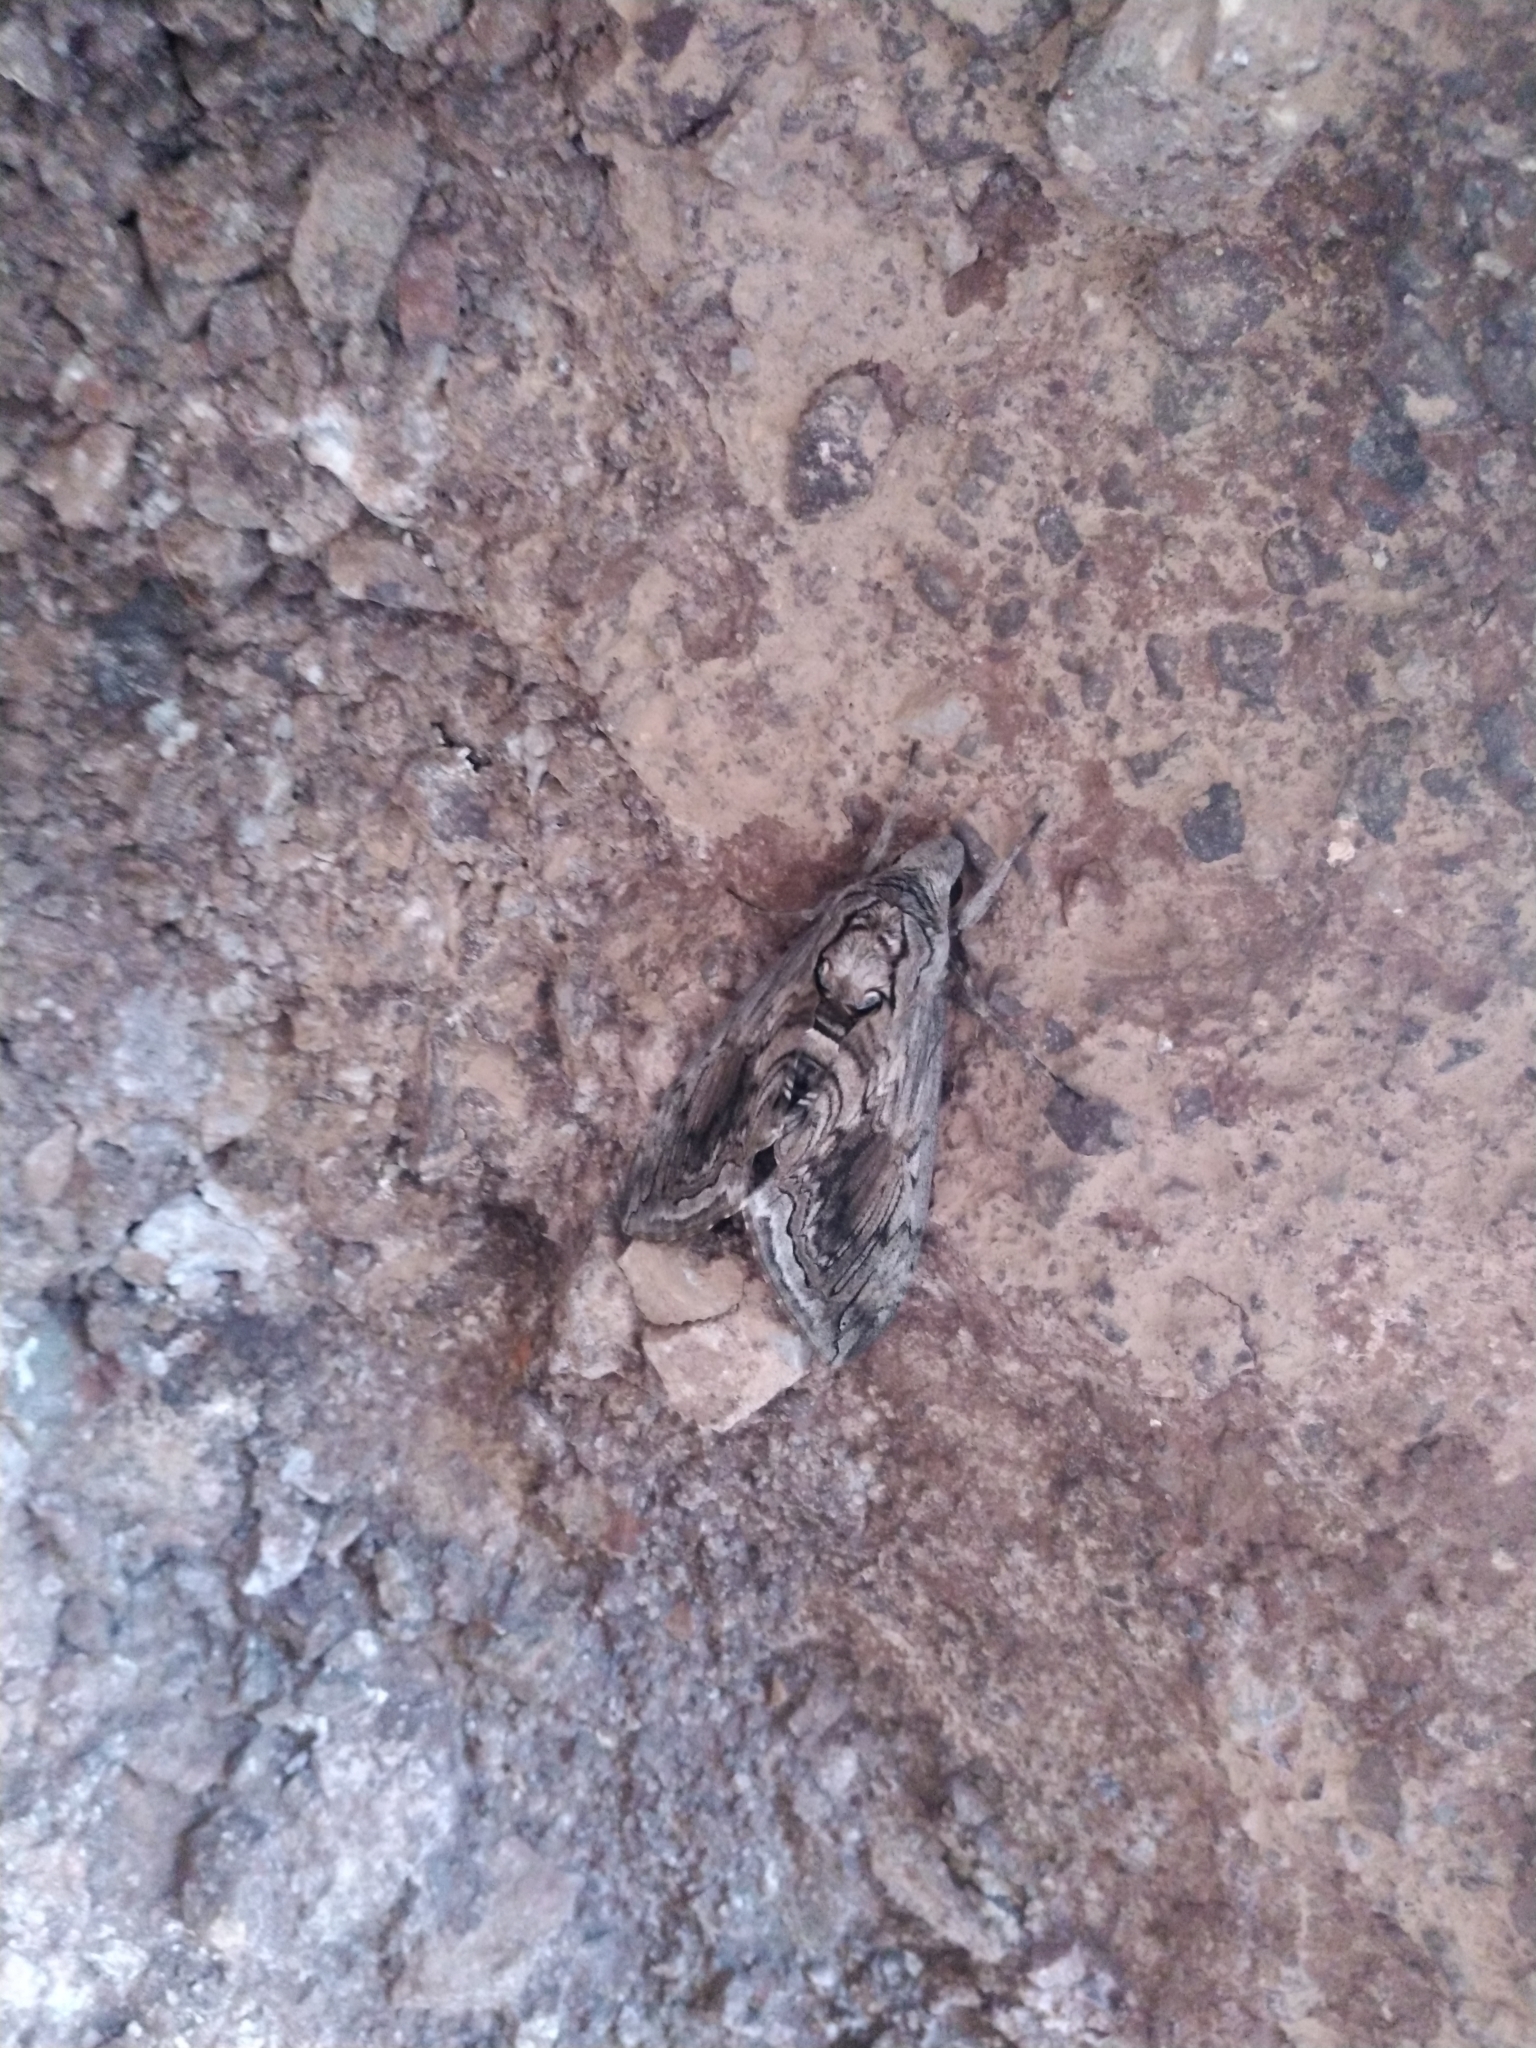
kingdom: Animalia
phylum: Arthropoda
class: Insecta
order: Lepidoptera
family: Sphingidae
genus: Manduca
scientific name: Manduca quinquemaculatus
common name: Five-spotted hawk-moth
